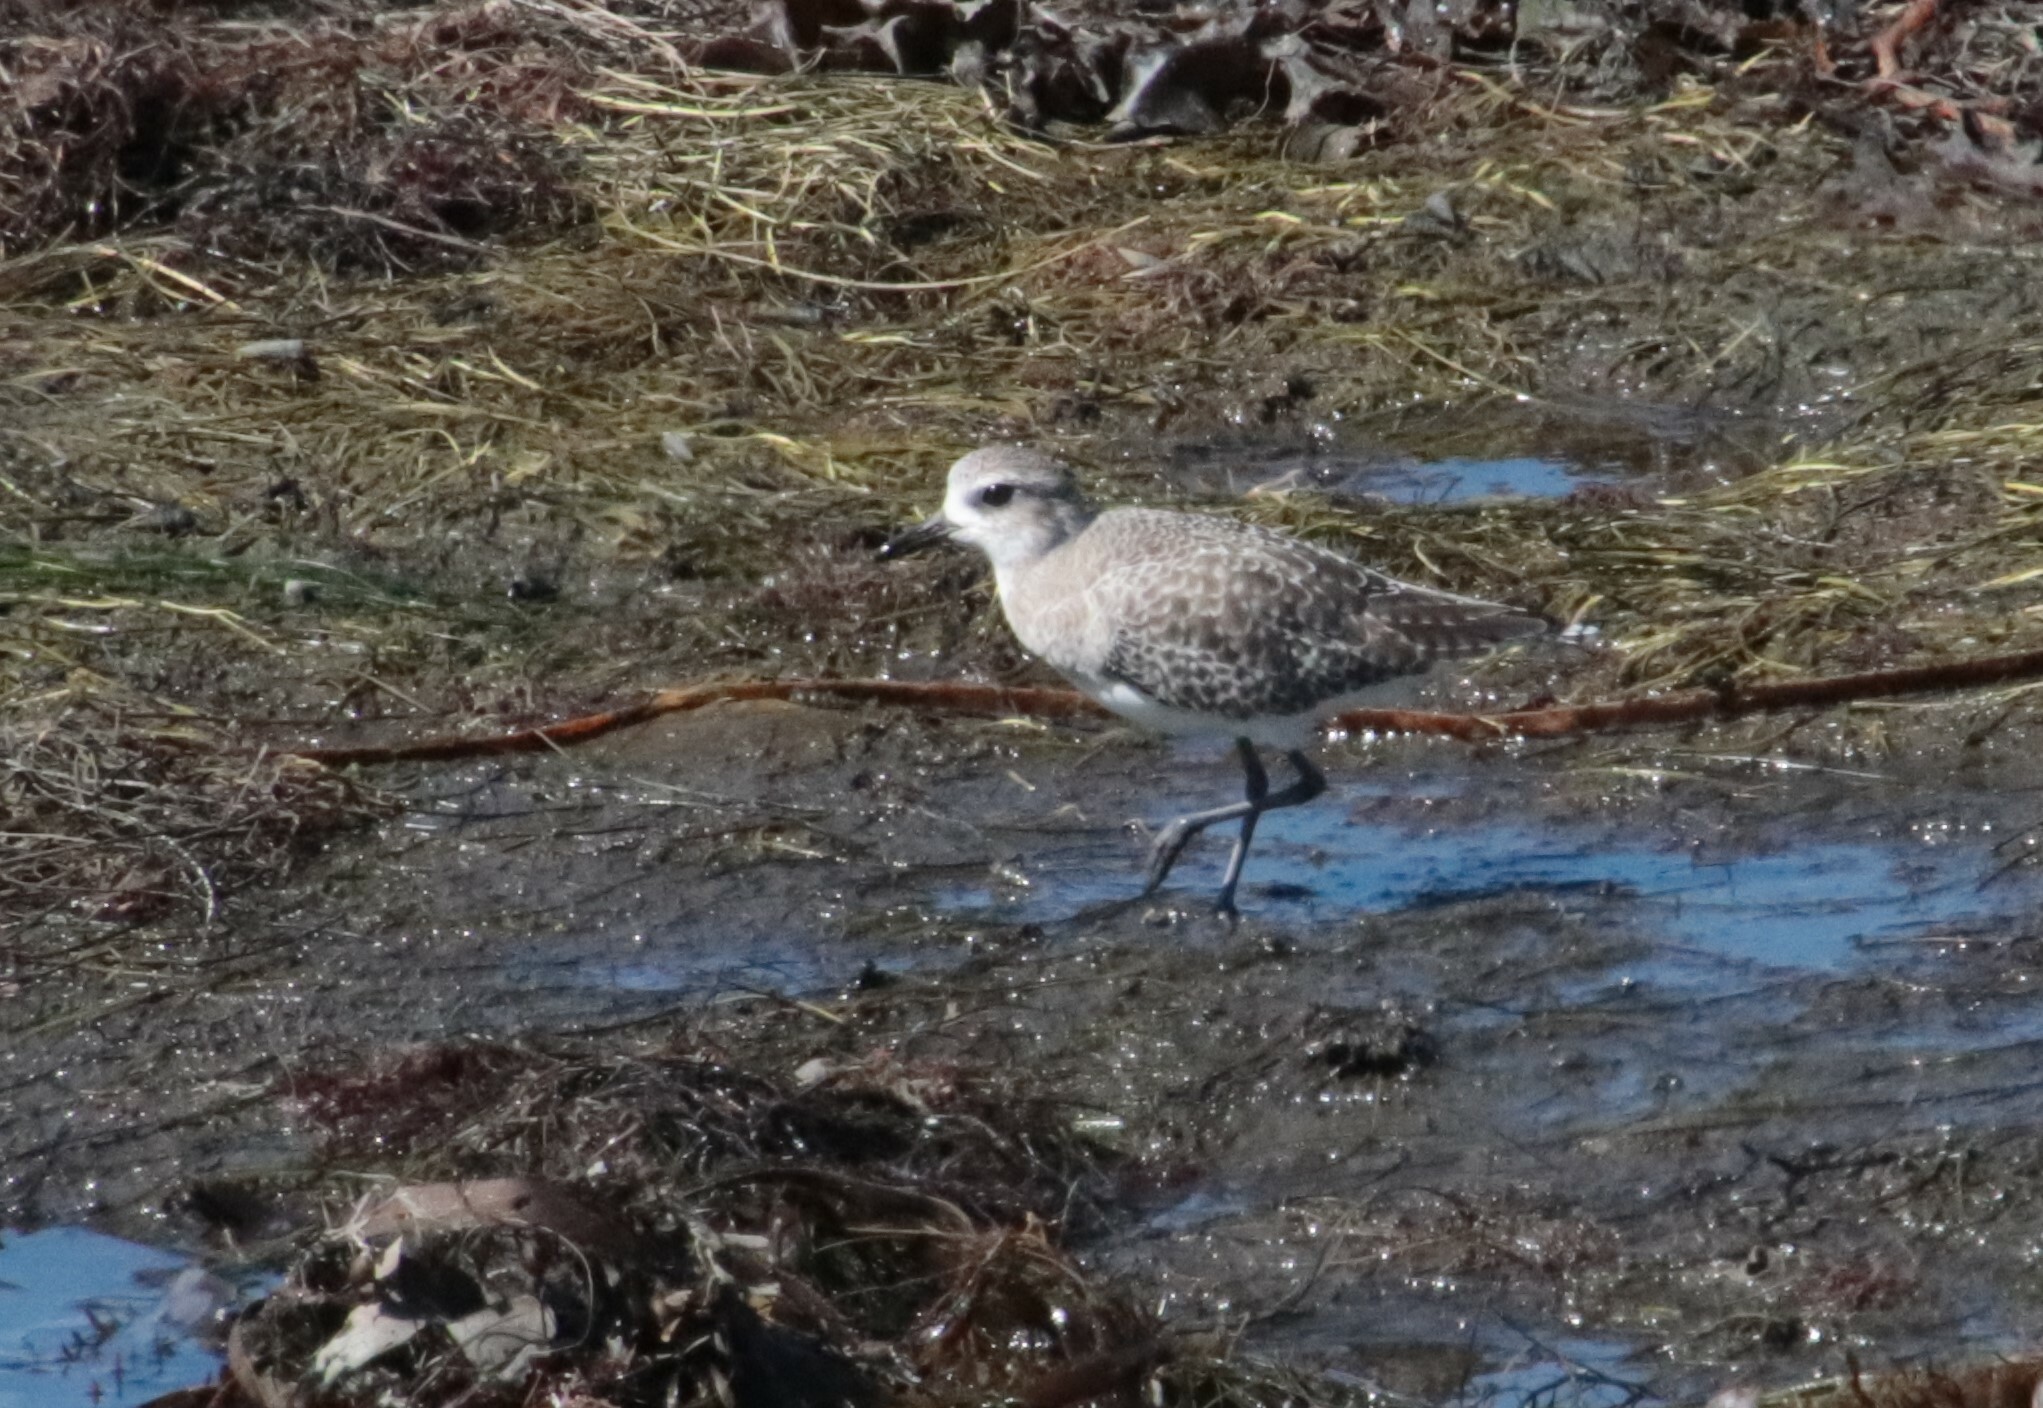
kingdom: Animalia
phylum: Chordata
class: Aves
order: Charadriiformes
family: Charadriidae
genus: Pluvialis
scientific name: Pluvialis squatarola
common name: Grey plover
